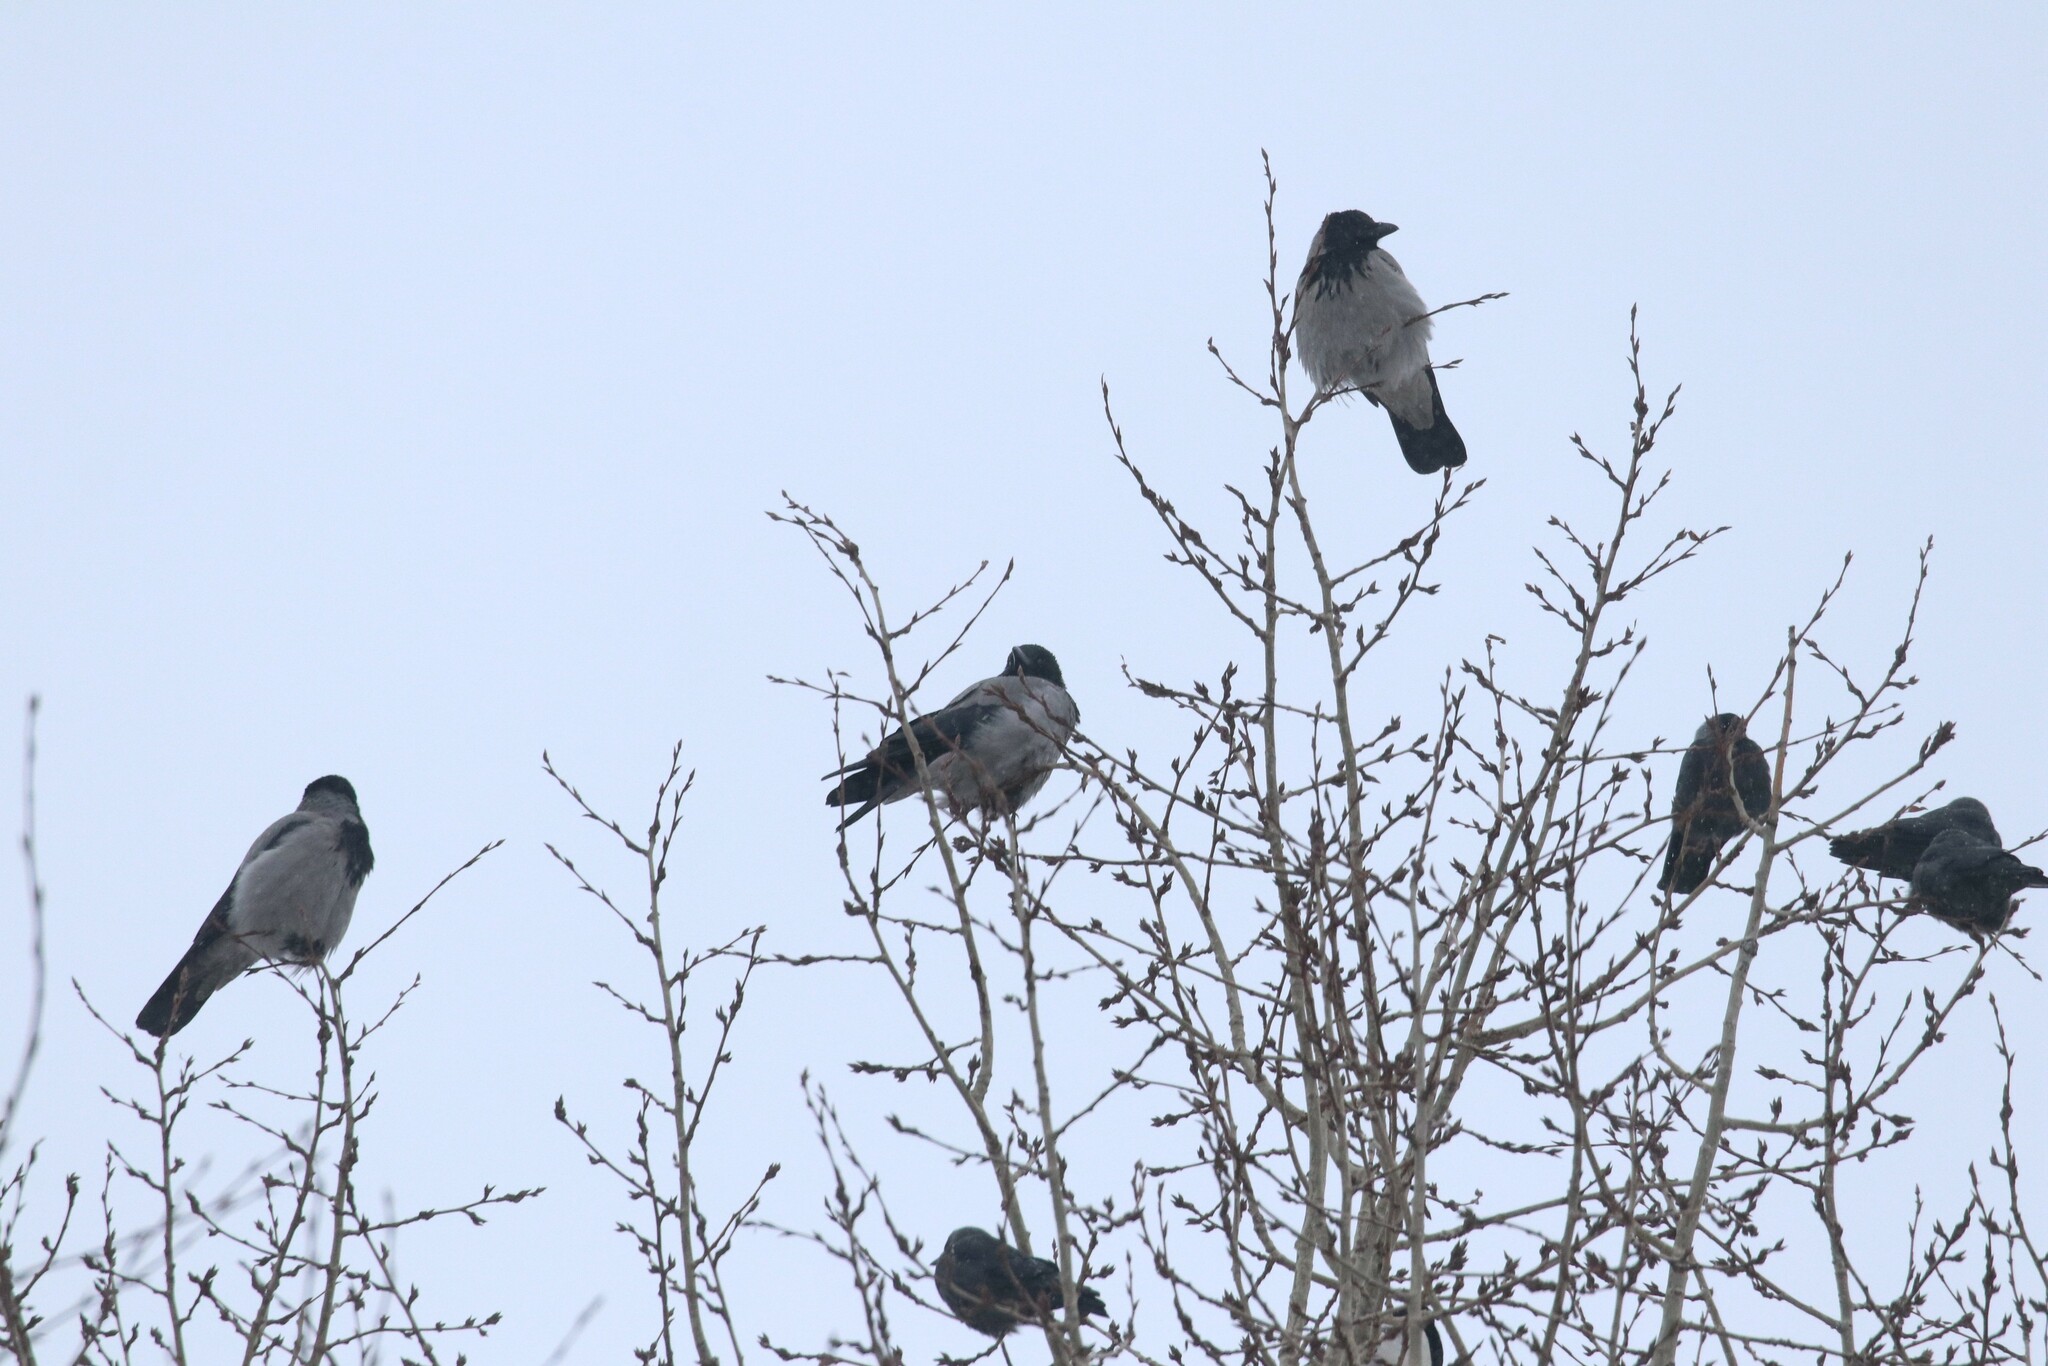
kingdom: Animalia
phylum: Chordata
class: Aves
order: Passeriformes
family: Corvidae
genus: Corvus
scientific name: Corvus cornix
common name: Hooded crow
